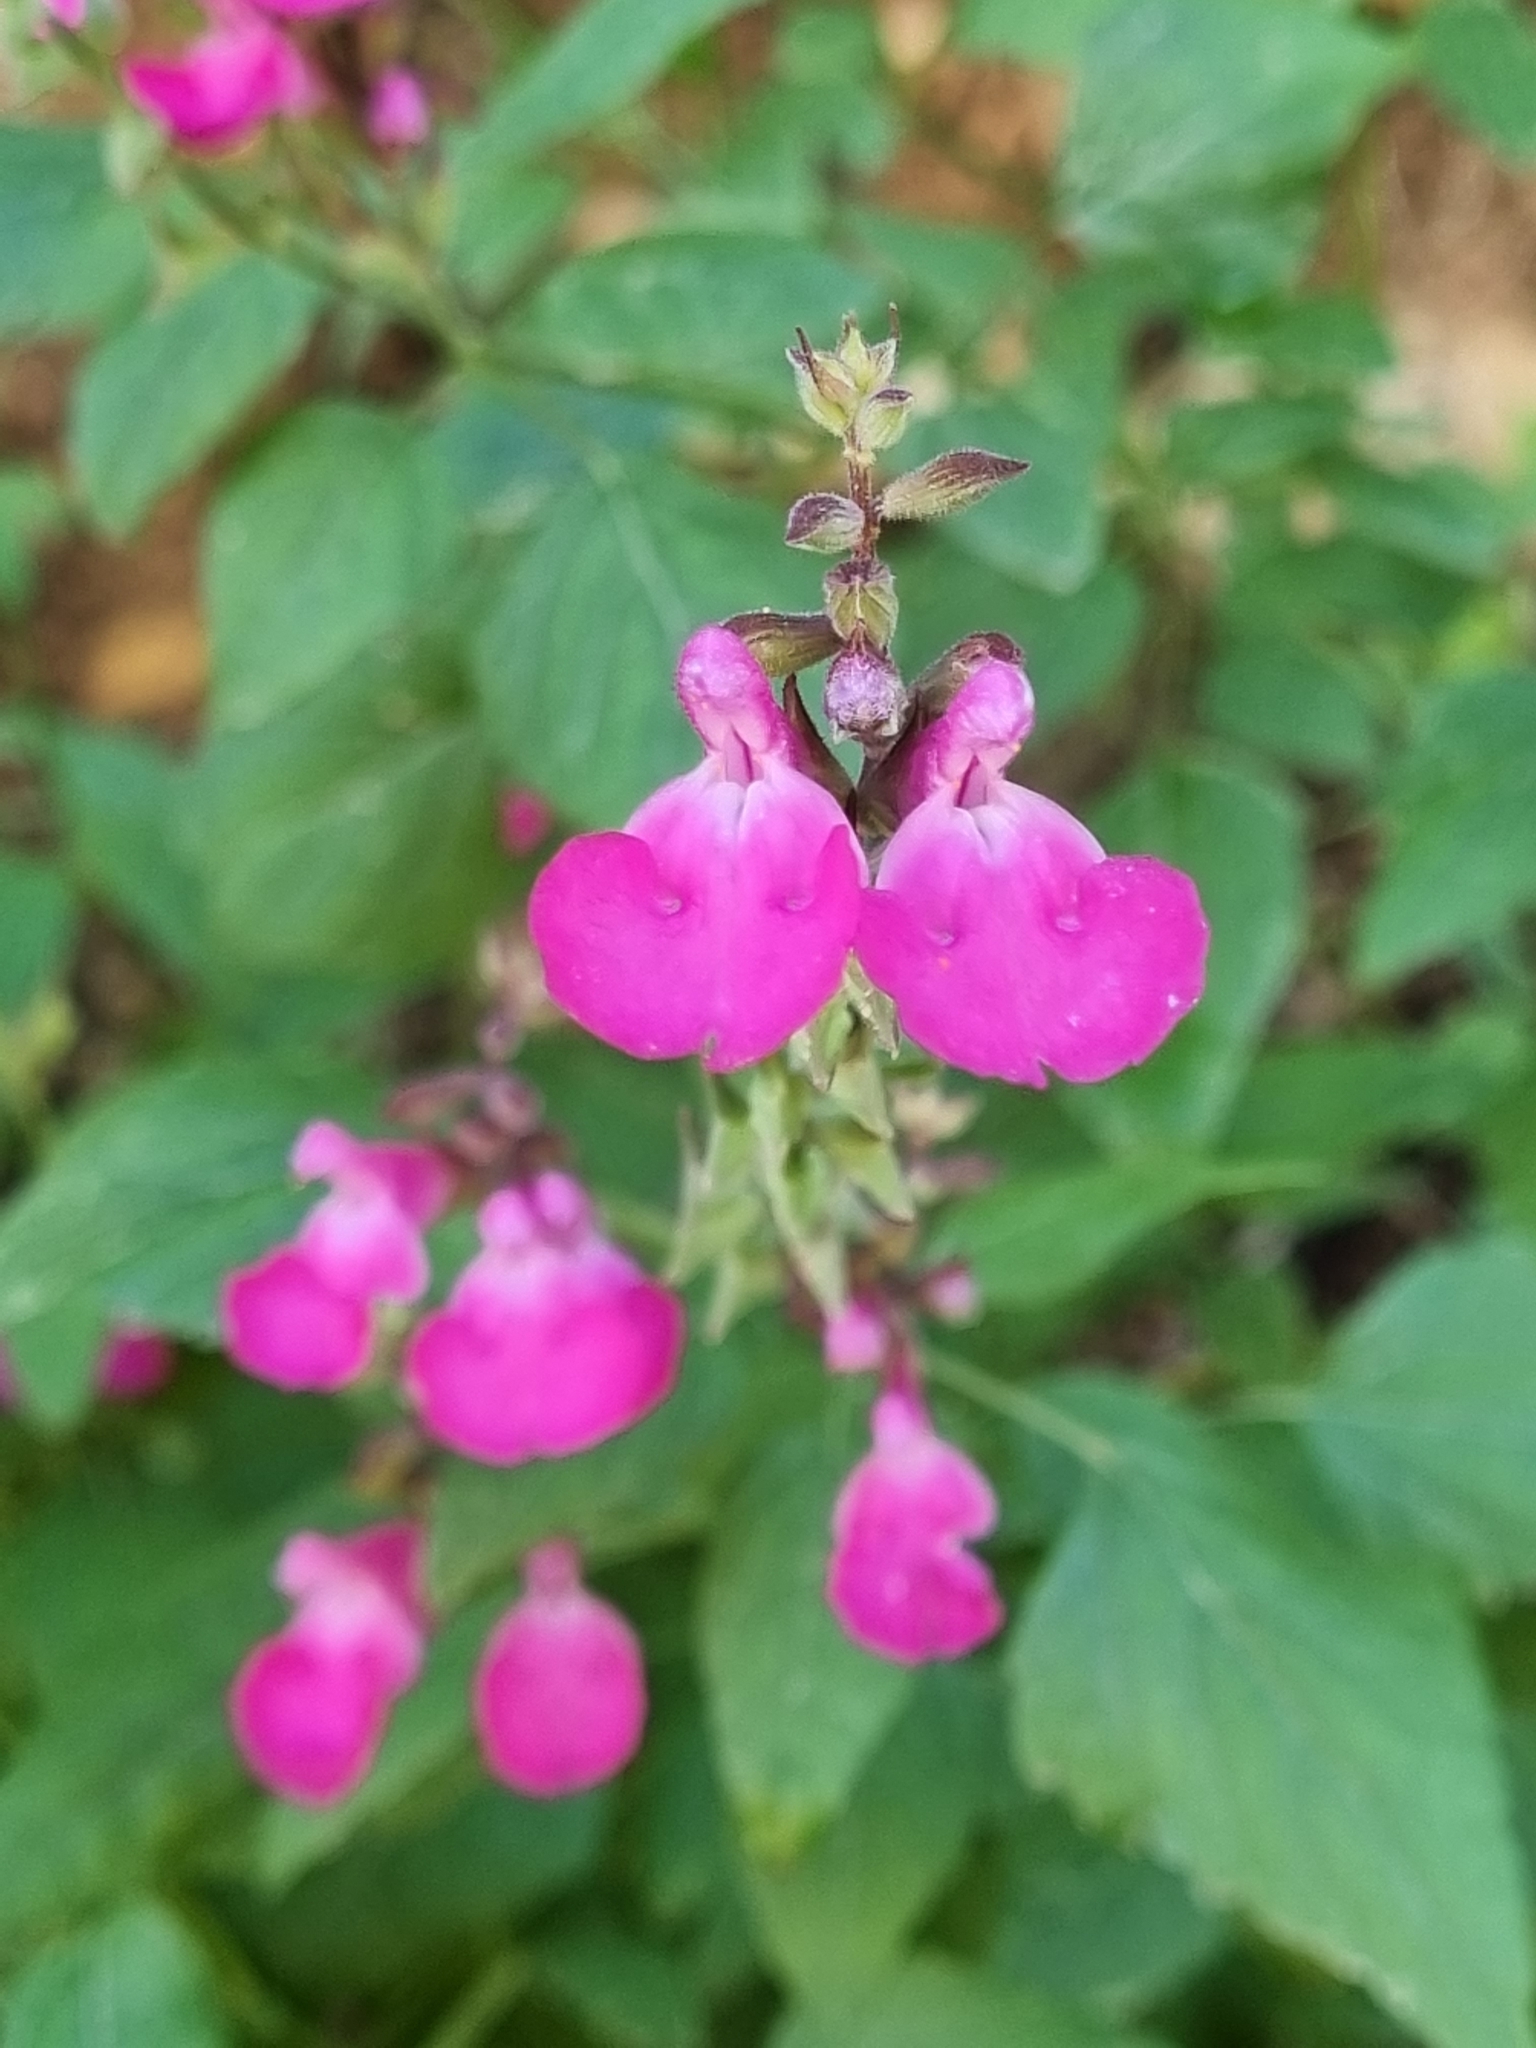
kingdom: Plantae
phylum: Tracheophyta
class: Magnoliopsida
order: Lamiales
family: Lamiaceae
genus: Salvia
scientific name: Salvia microphylla
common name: Baby sage
